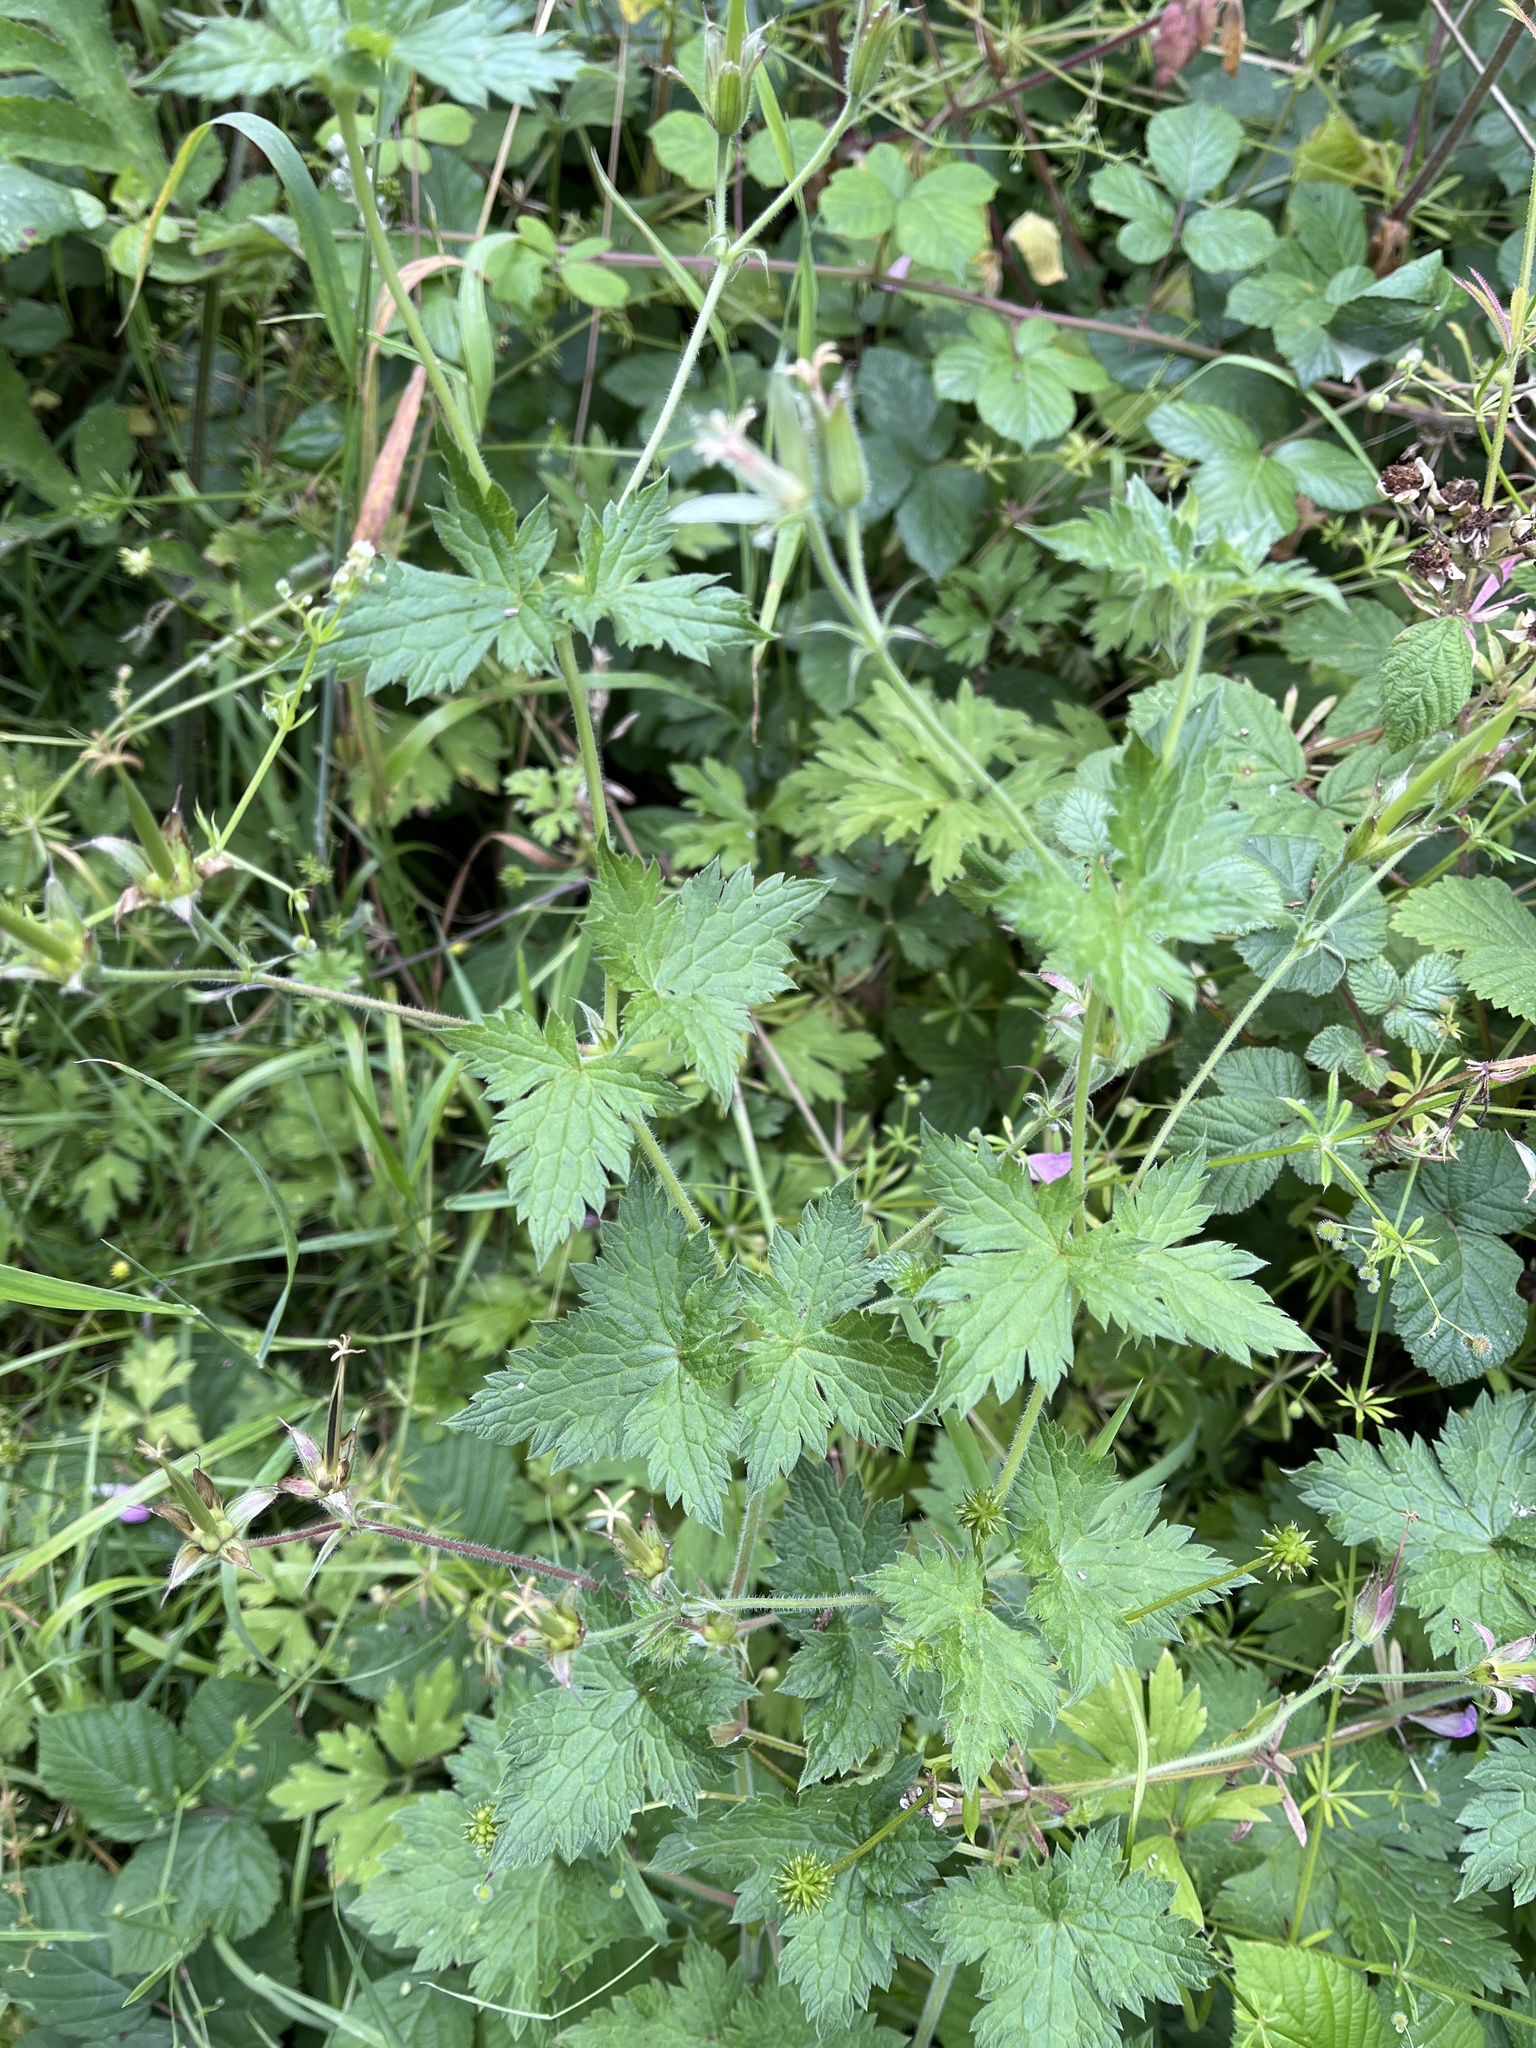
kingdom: Plantae
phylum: Tracheophyta
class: Magnoliopsida
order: Geraniales
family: Geraniaceae
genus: Geranium
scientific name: Geranium oxonianum
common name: Druce's crane's-bill
